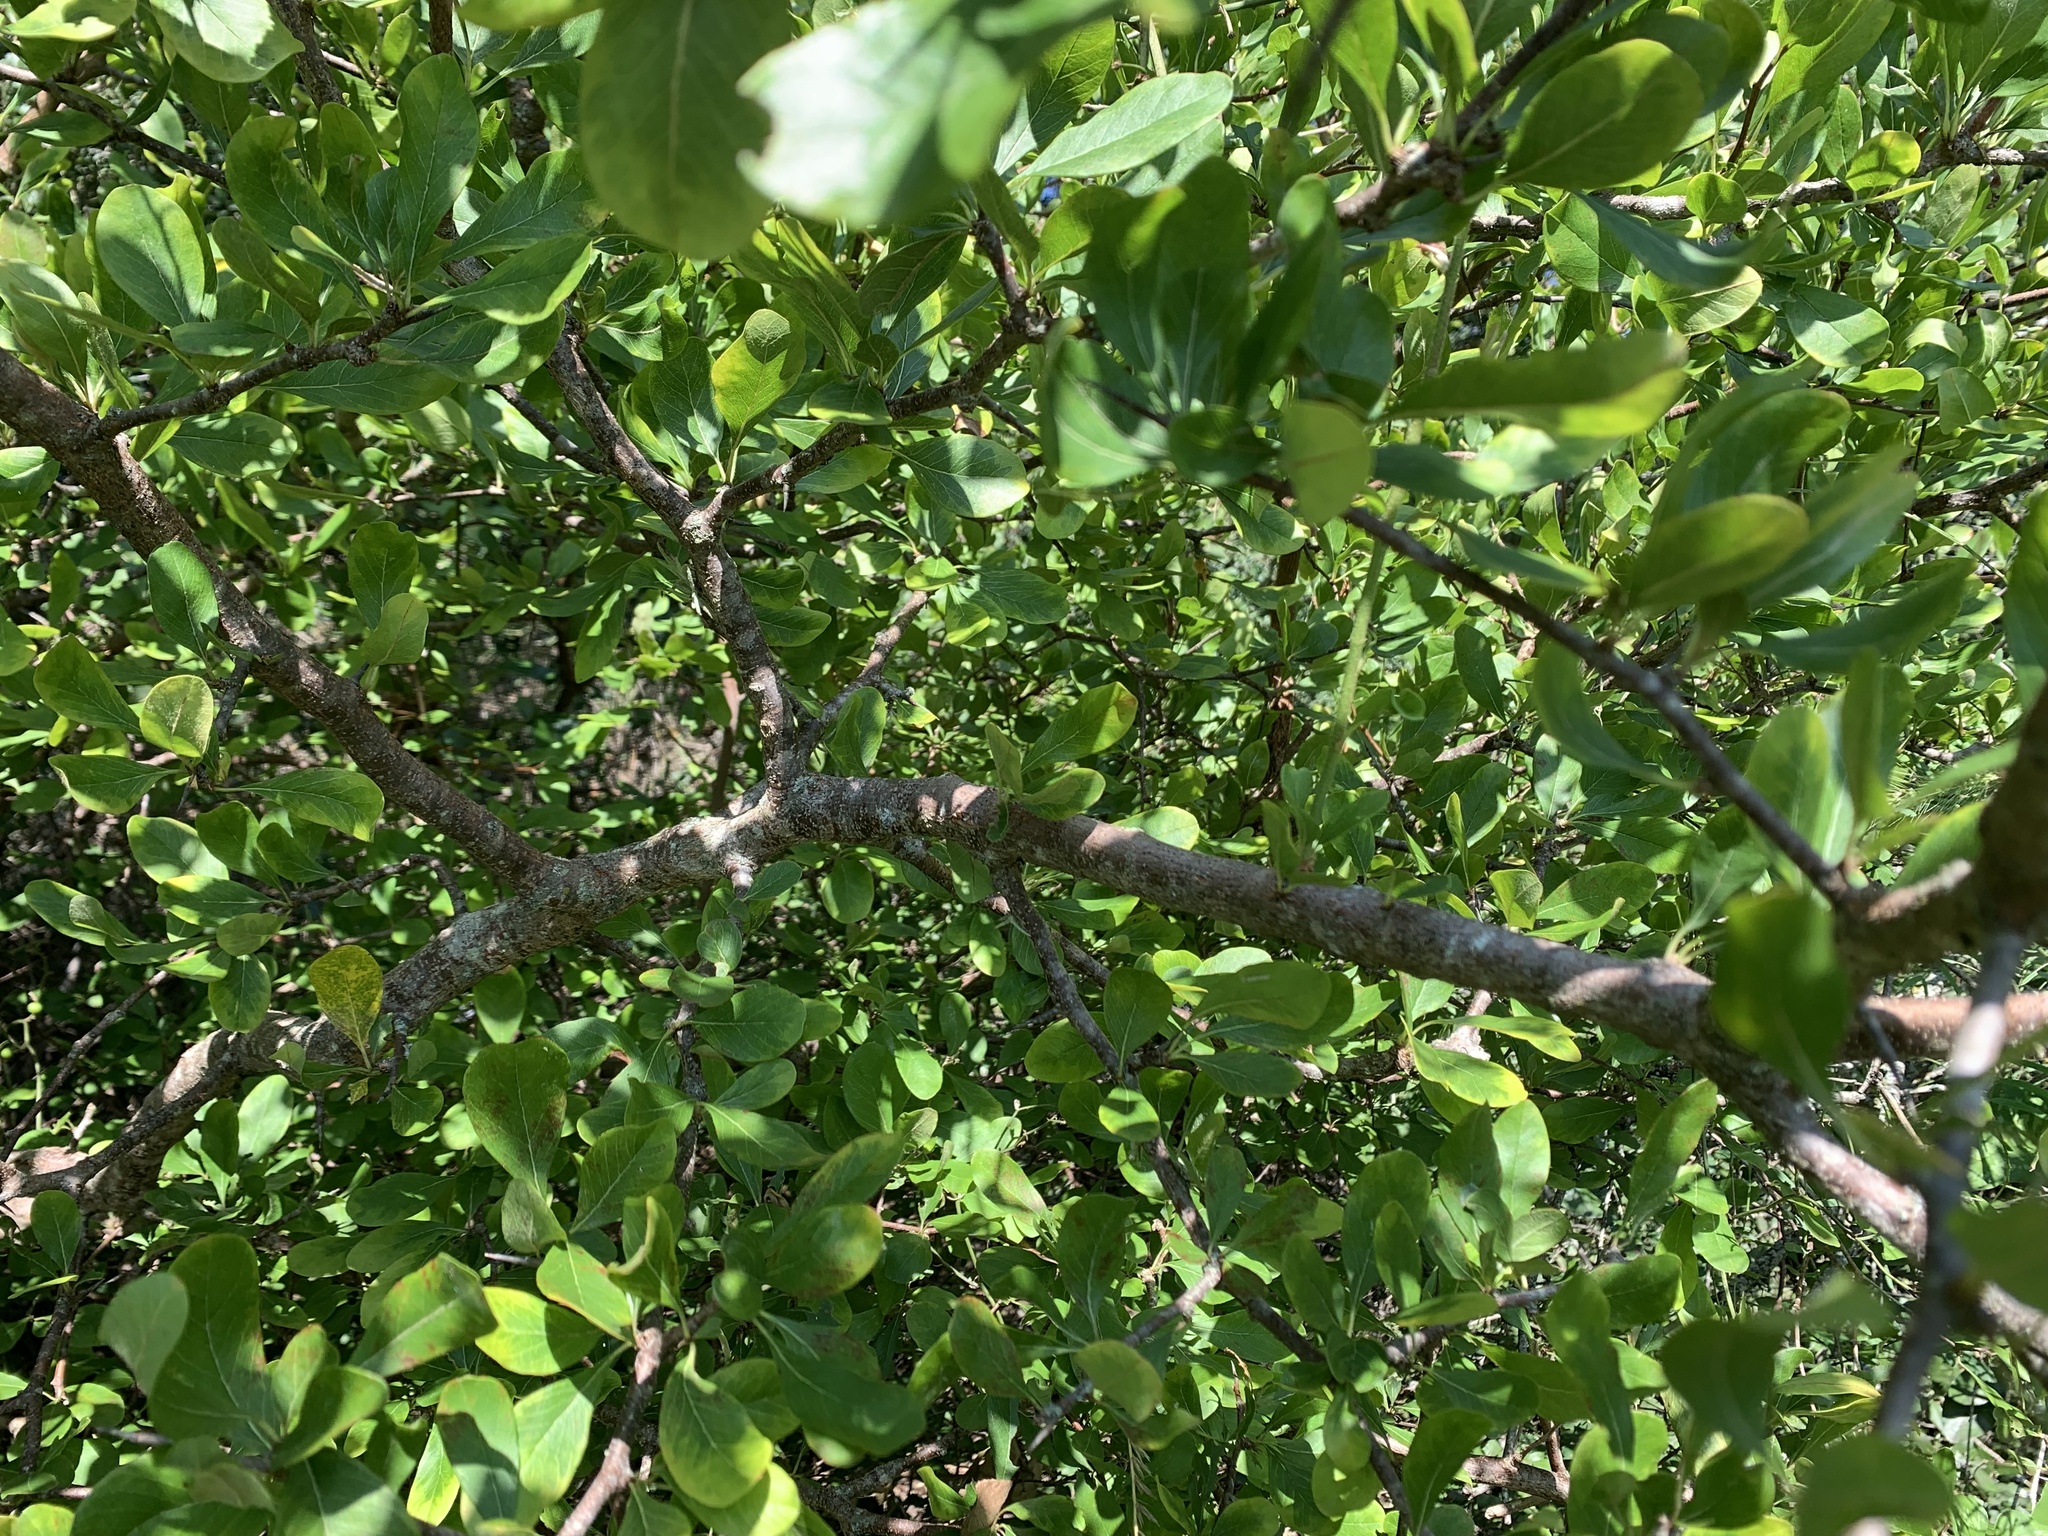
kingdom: Plantae
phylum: Tracheophyta
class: Magnoliopsida
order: Ericales
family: Sapotaceae
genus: Sideroxylon
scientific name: Sideroxylon lanuginosum
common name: Chittamwood
